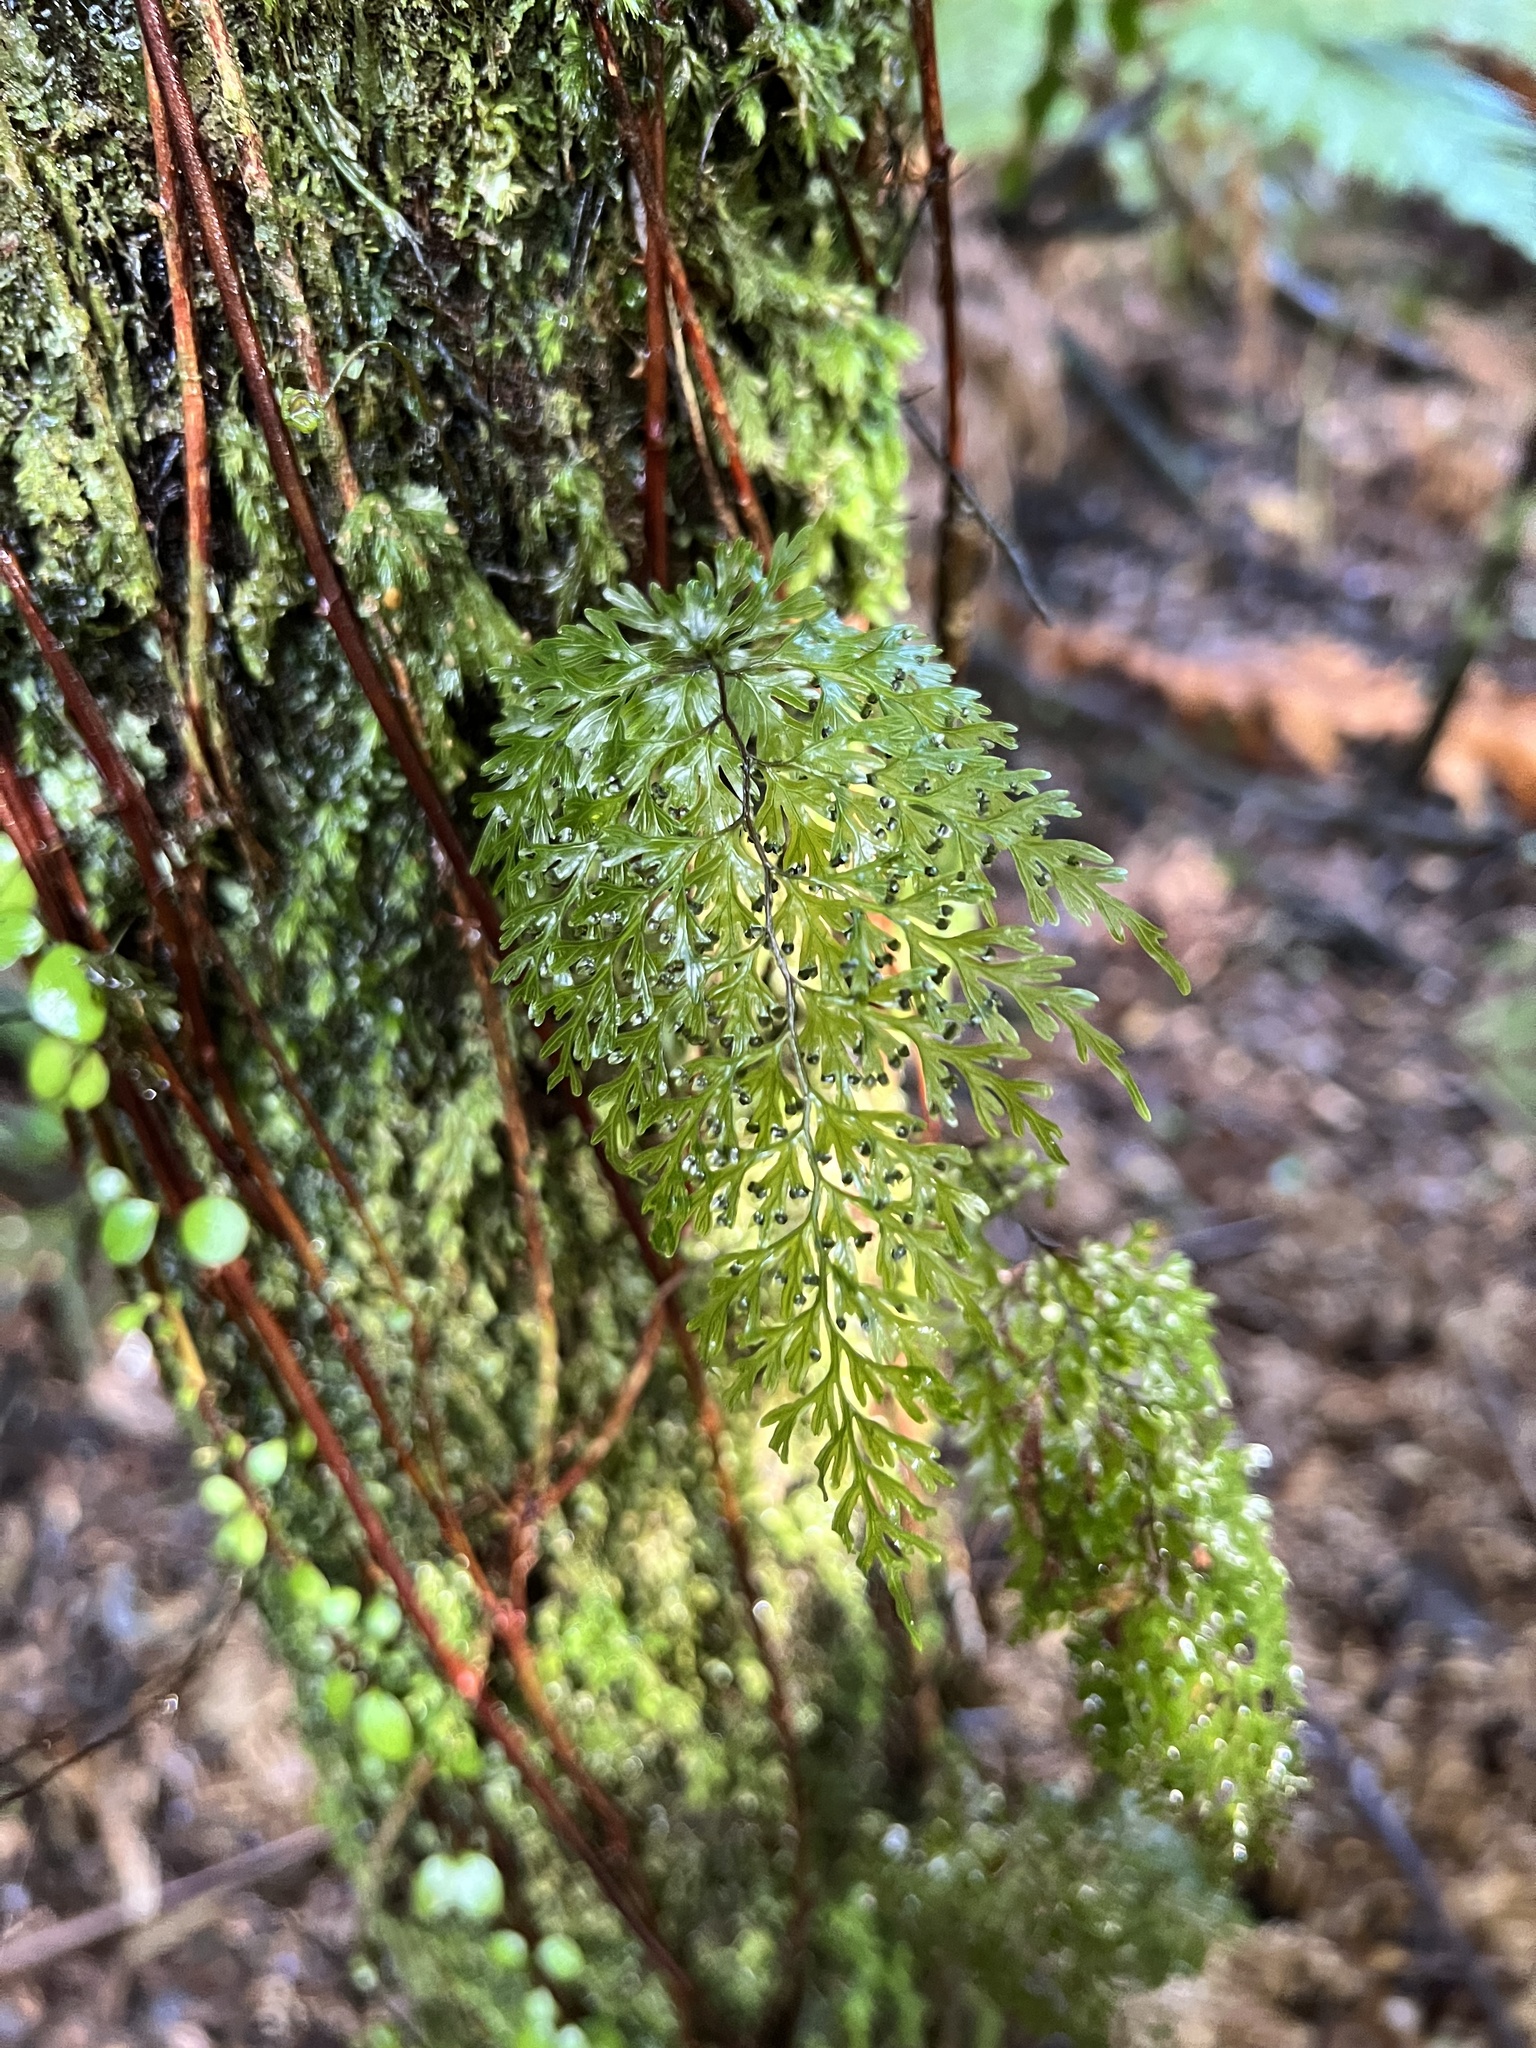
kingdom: Plantae
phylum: Tracheophyta
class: Polypodiopsida
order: Hymenophyllales
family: Hymenophyllaceae
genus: Hymenophyllum
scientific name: Hymenophyllum demissum
